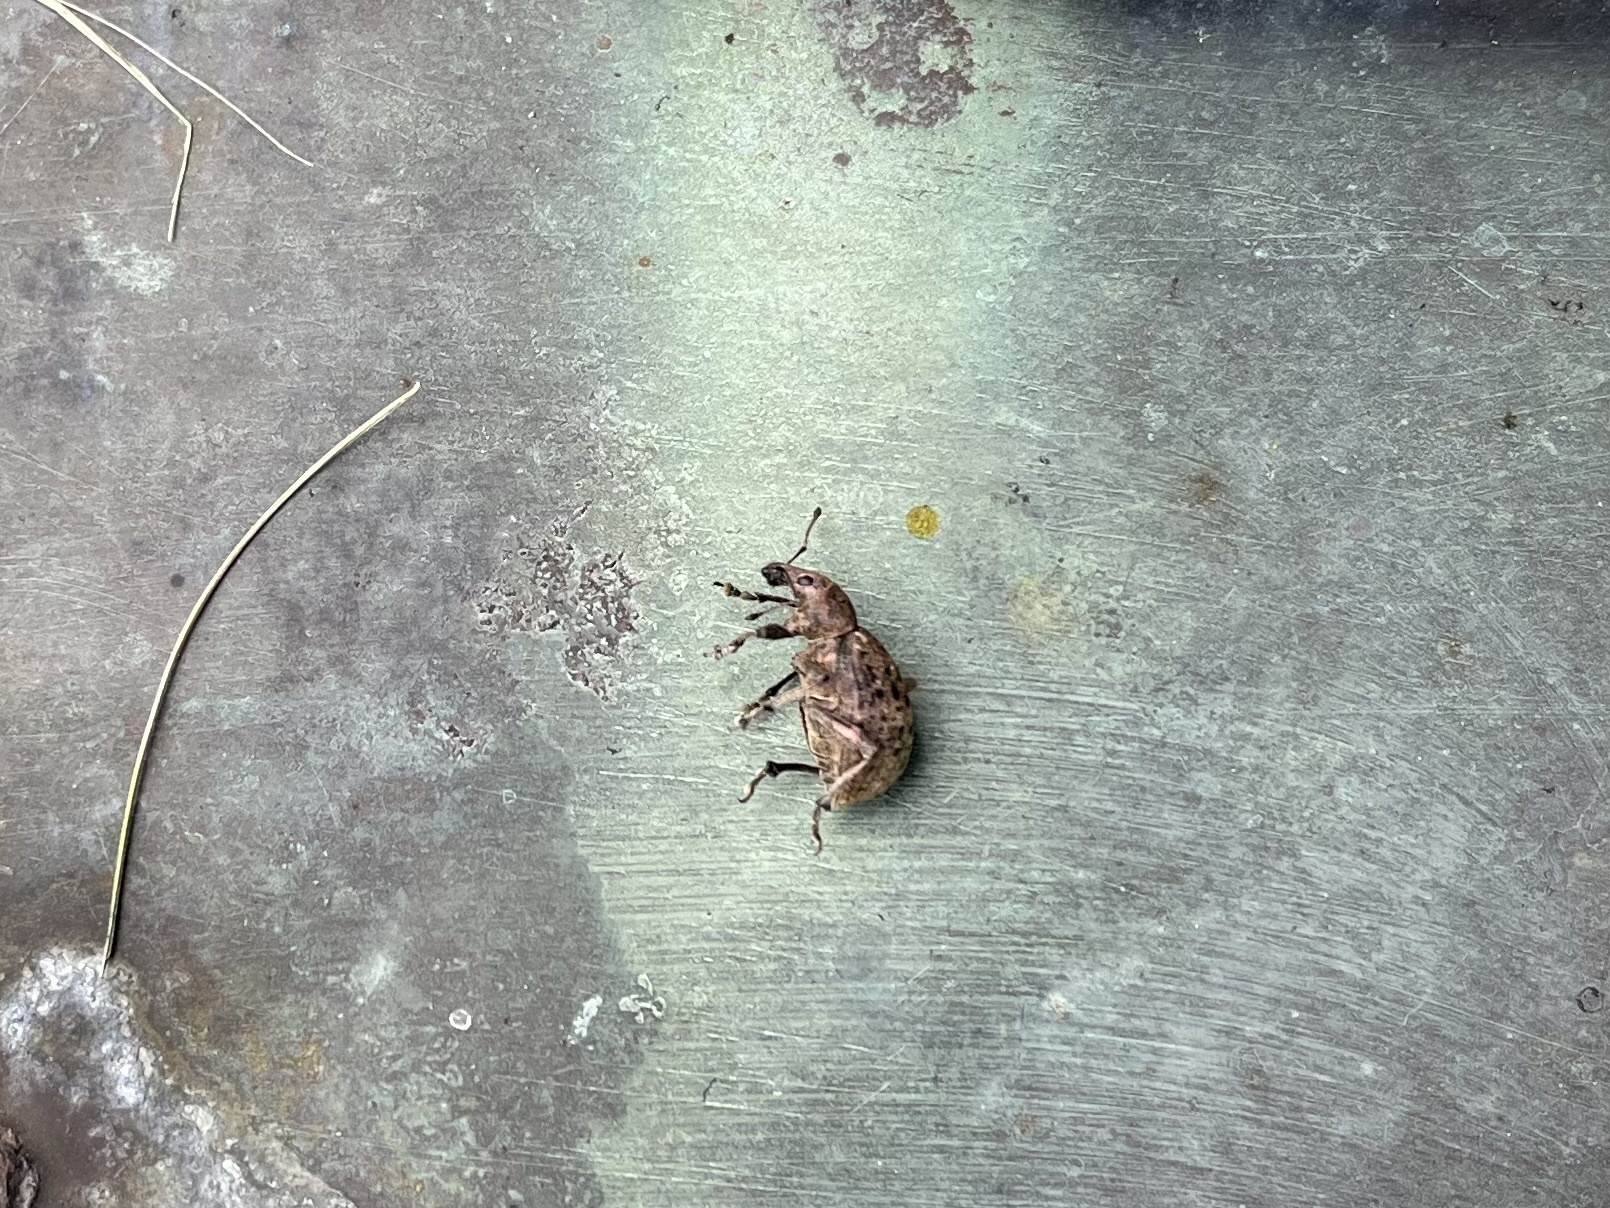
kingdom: Animalia
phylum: Arthropoda
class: Insecta
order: Coleoptera
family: Curculionidae
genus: Liophloeus
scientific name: Liophloeus tessulatus
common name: Weevil
